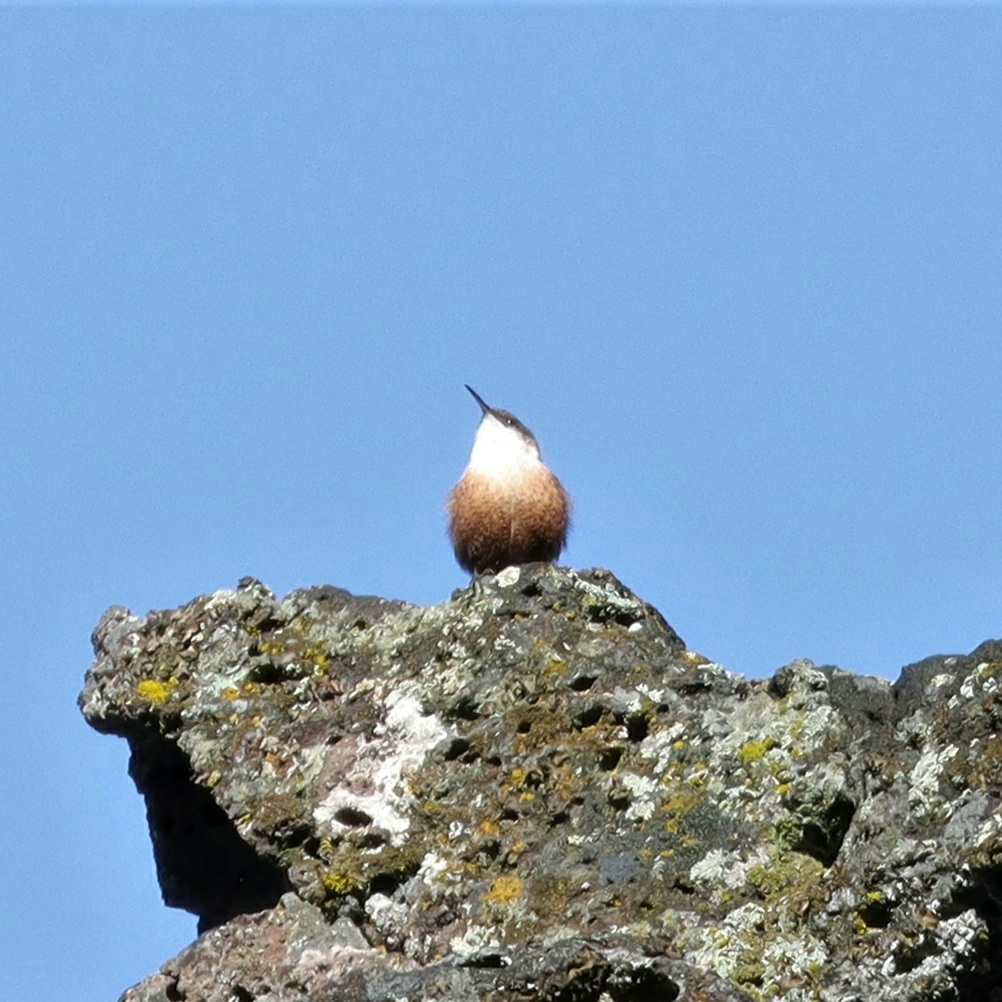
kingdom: Animalia
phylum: Chordata
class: Aves
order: Passeriformes
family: Troglodytidae
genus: Catherpes
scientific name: Catherpes mexicanus
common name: Canyon wren
